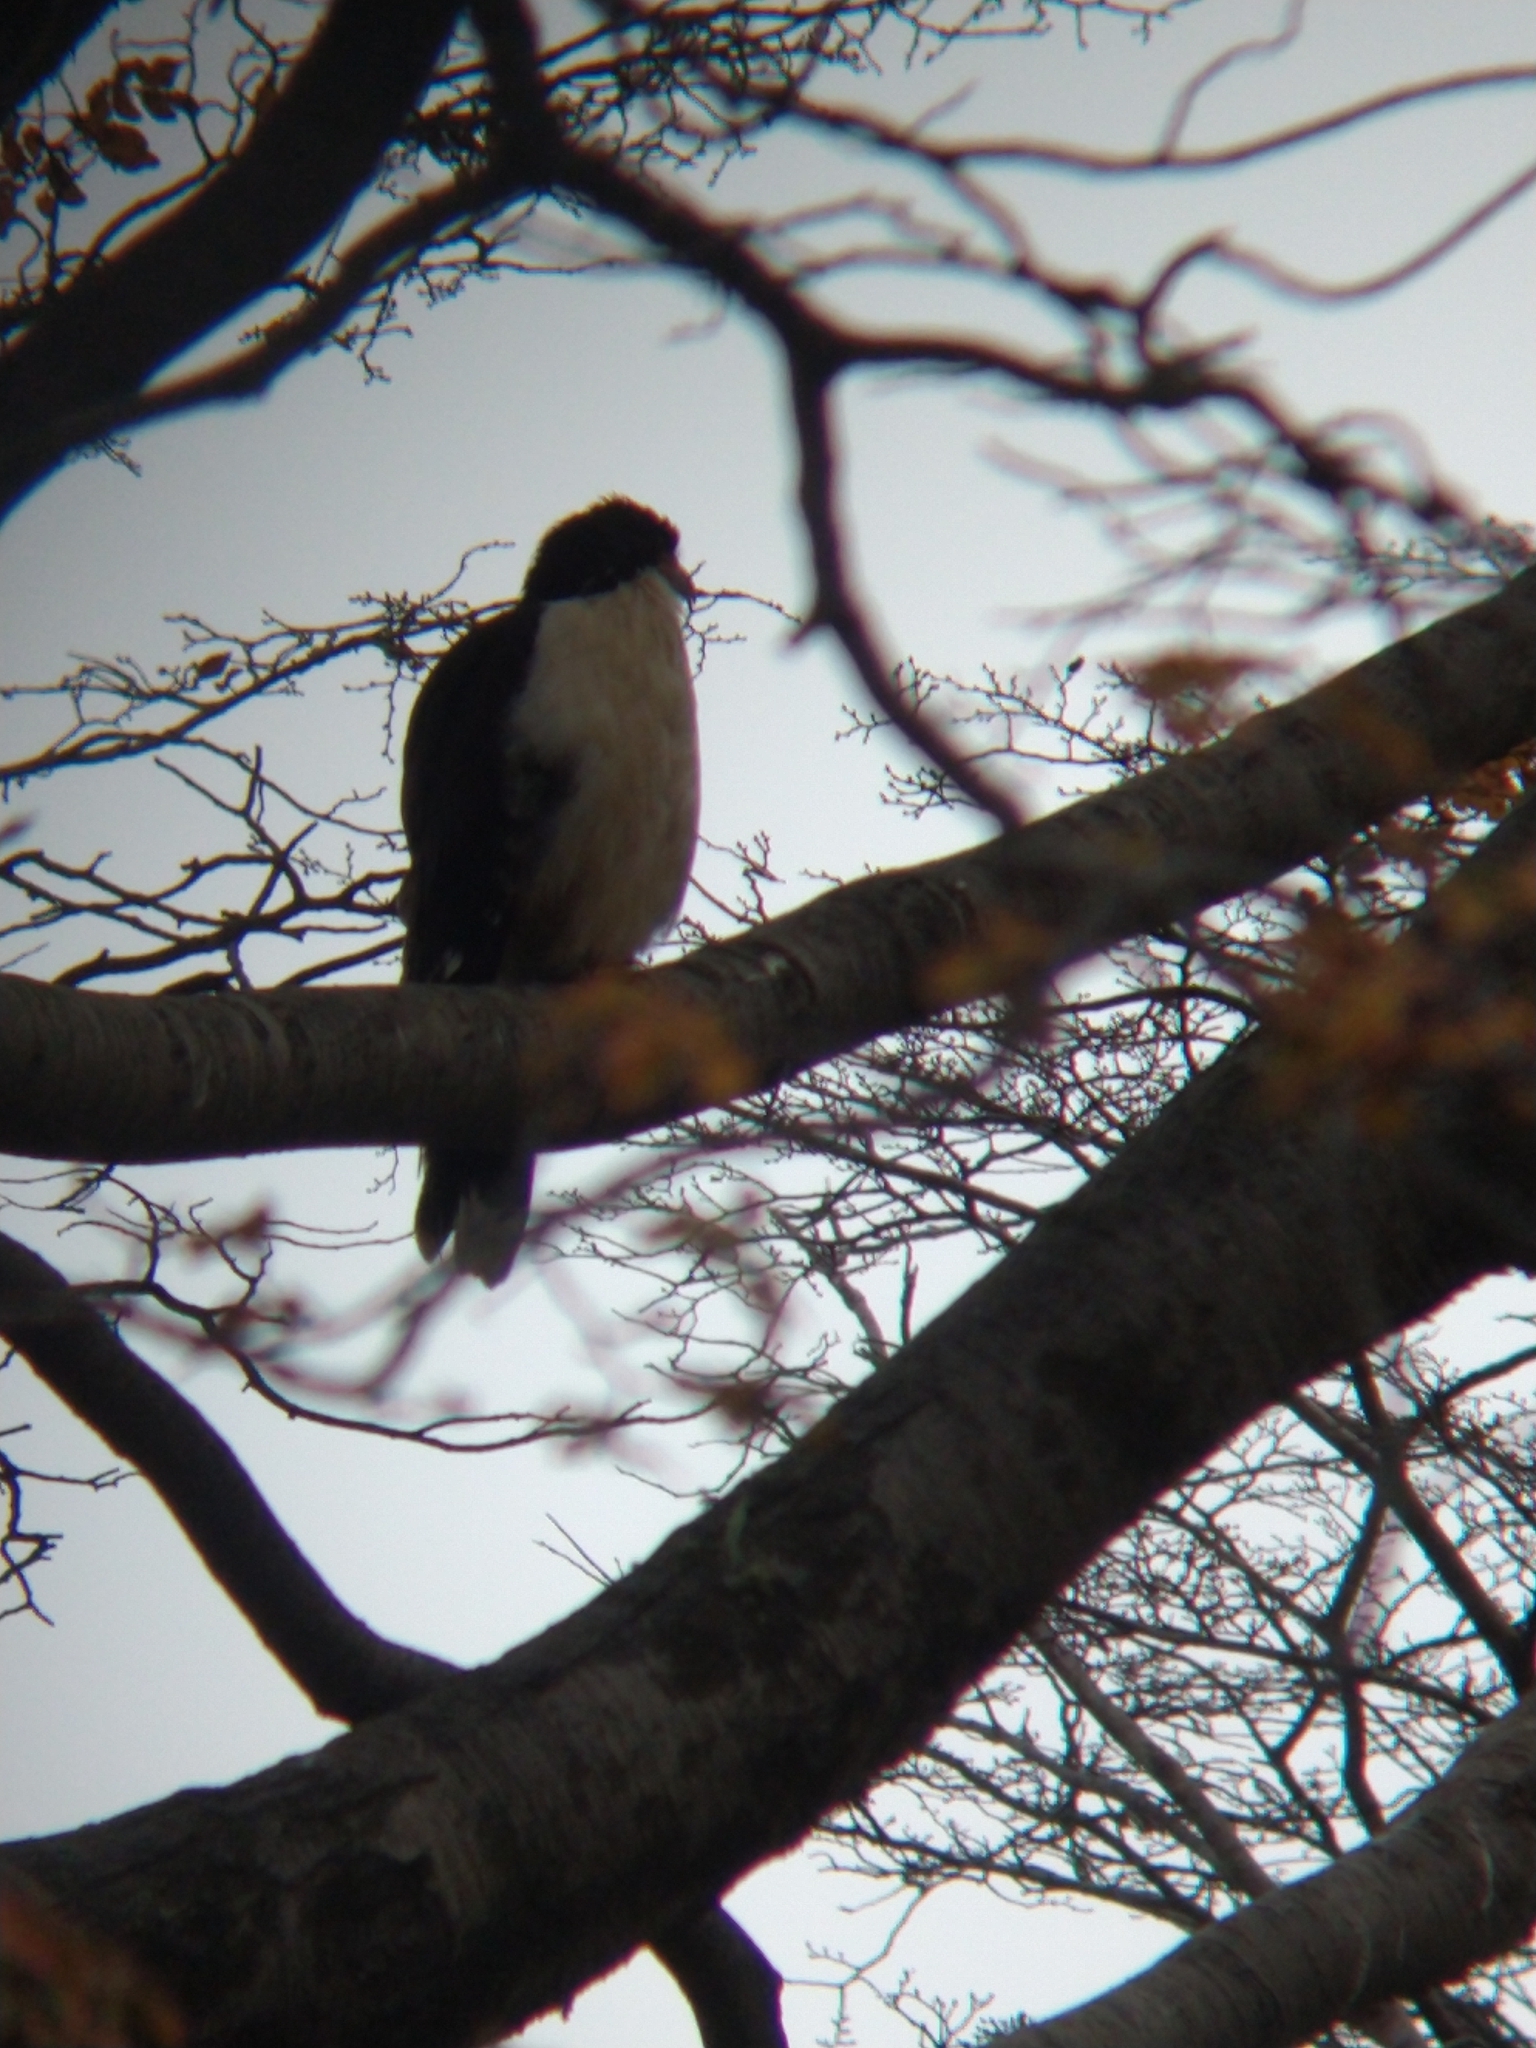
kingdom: Animalia
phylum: Chordata
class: Aves
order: Falconiformes
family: Falconidae
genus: Daptrius
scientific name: Daptrius
